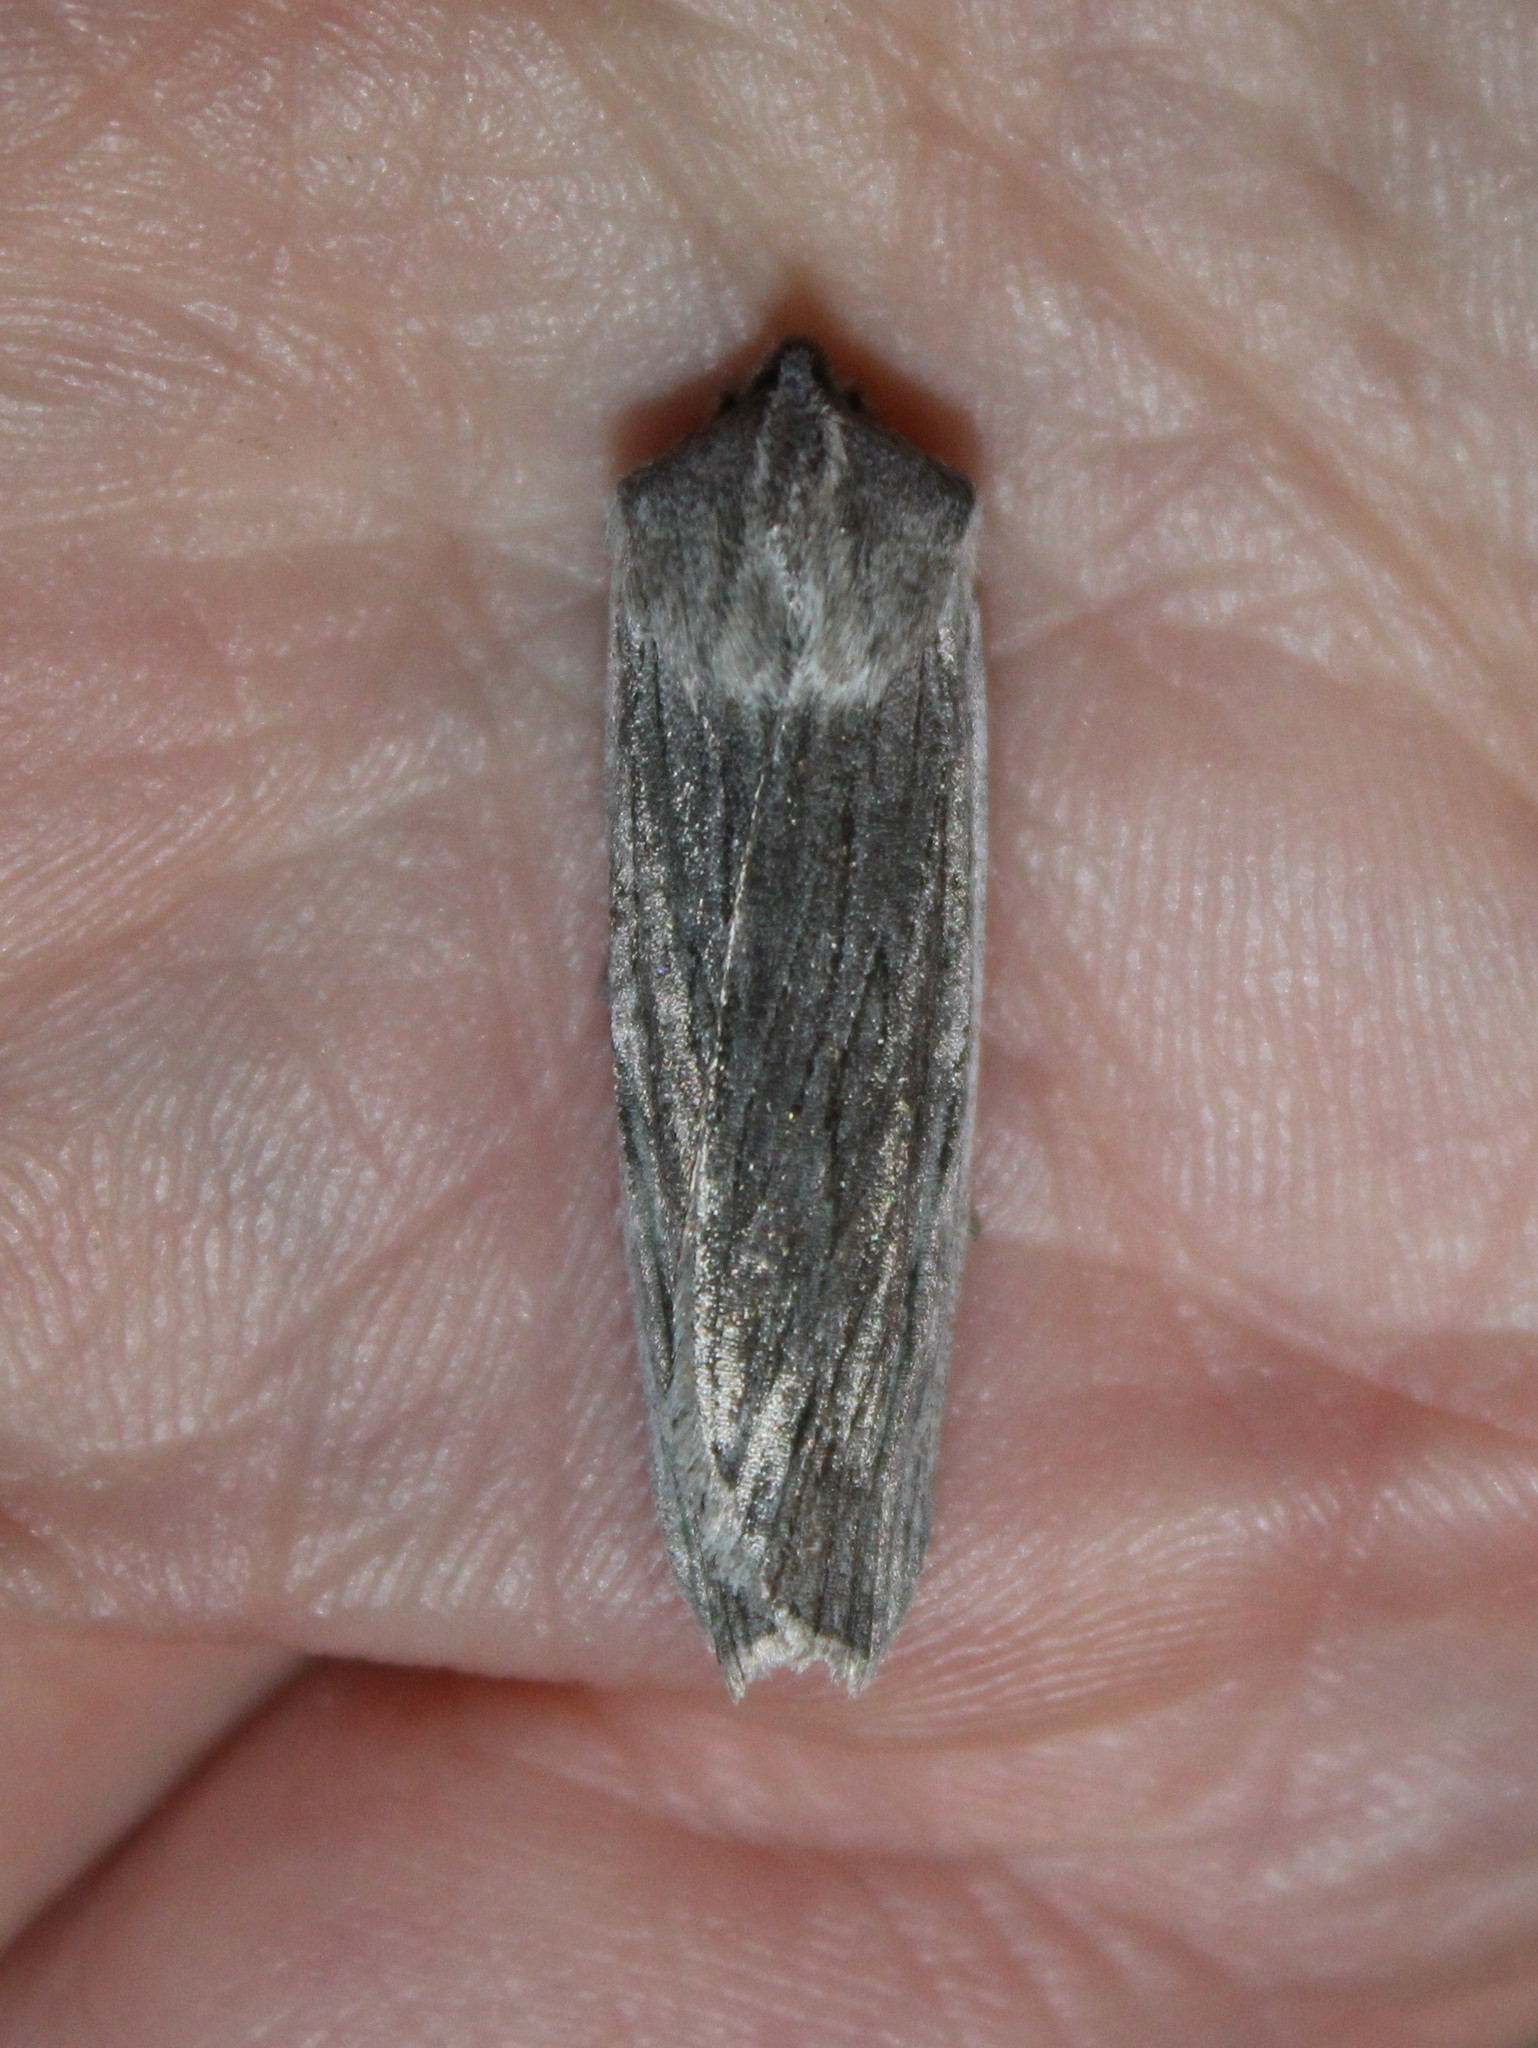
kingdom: Animalia
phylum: Arthropoda
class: Insecta
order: Lepidoptera
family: Noctuidae
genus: Lithophane
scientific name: Lithophane fagina
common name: Hoary pinion moth
